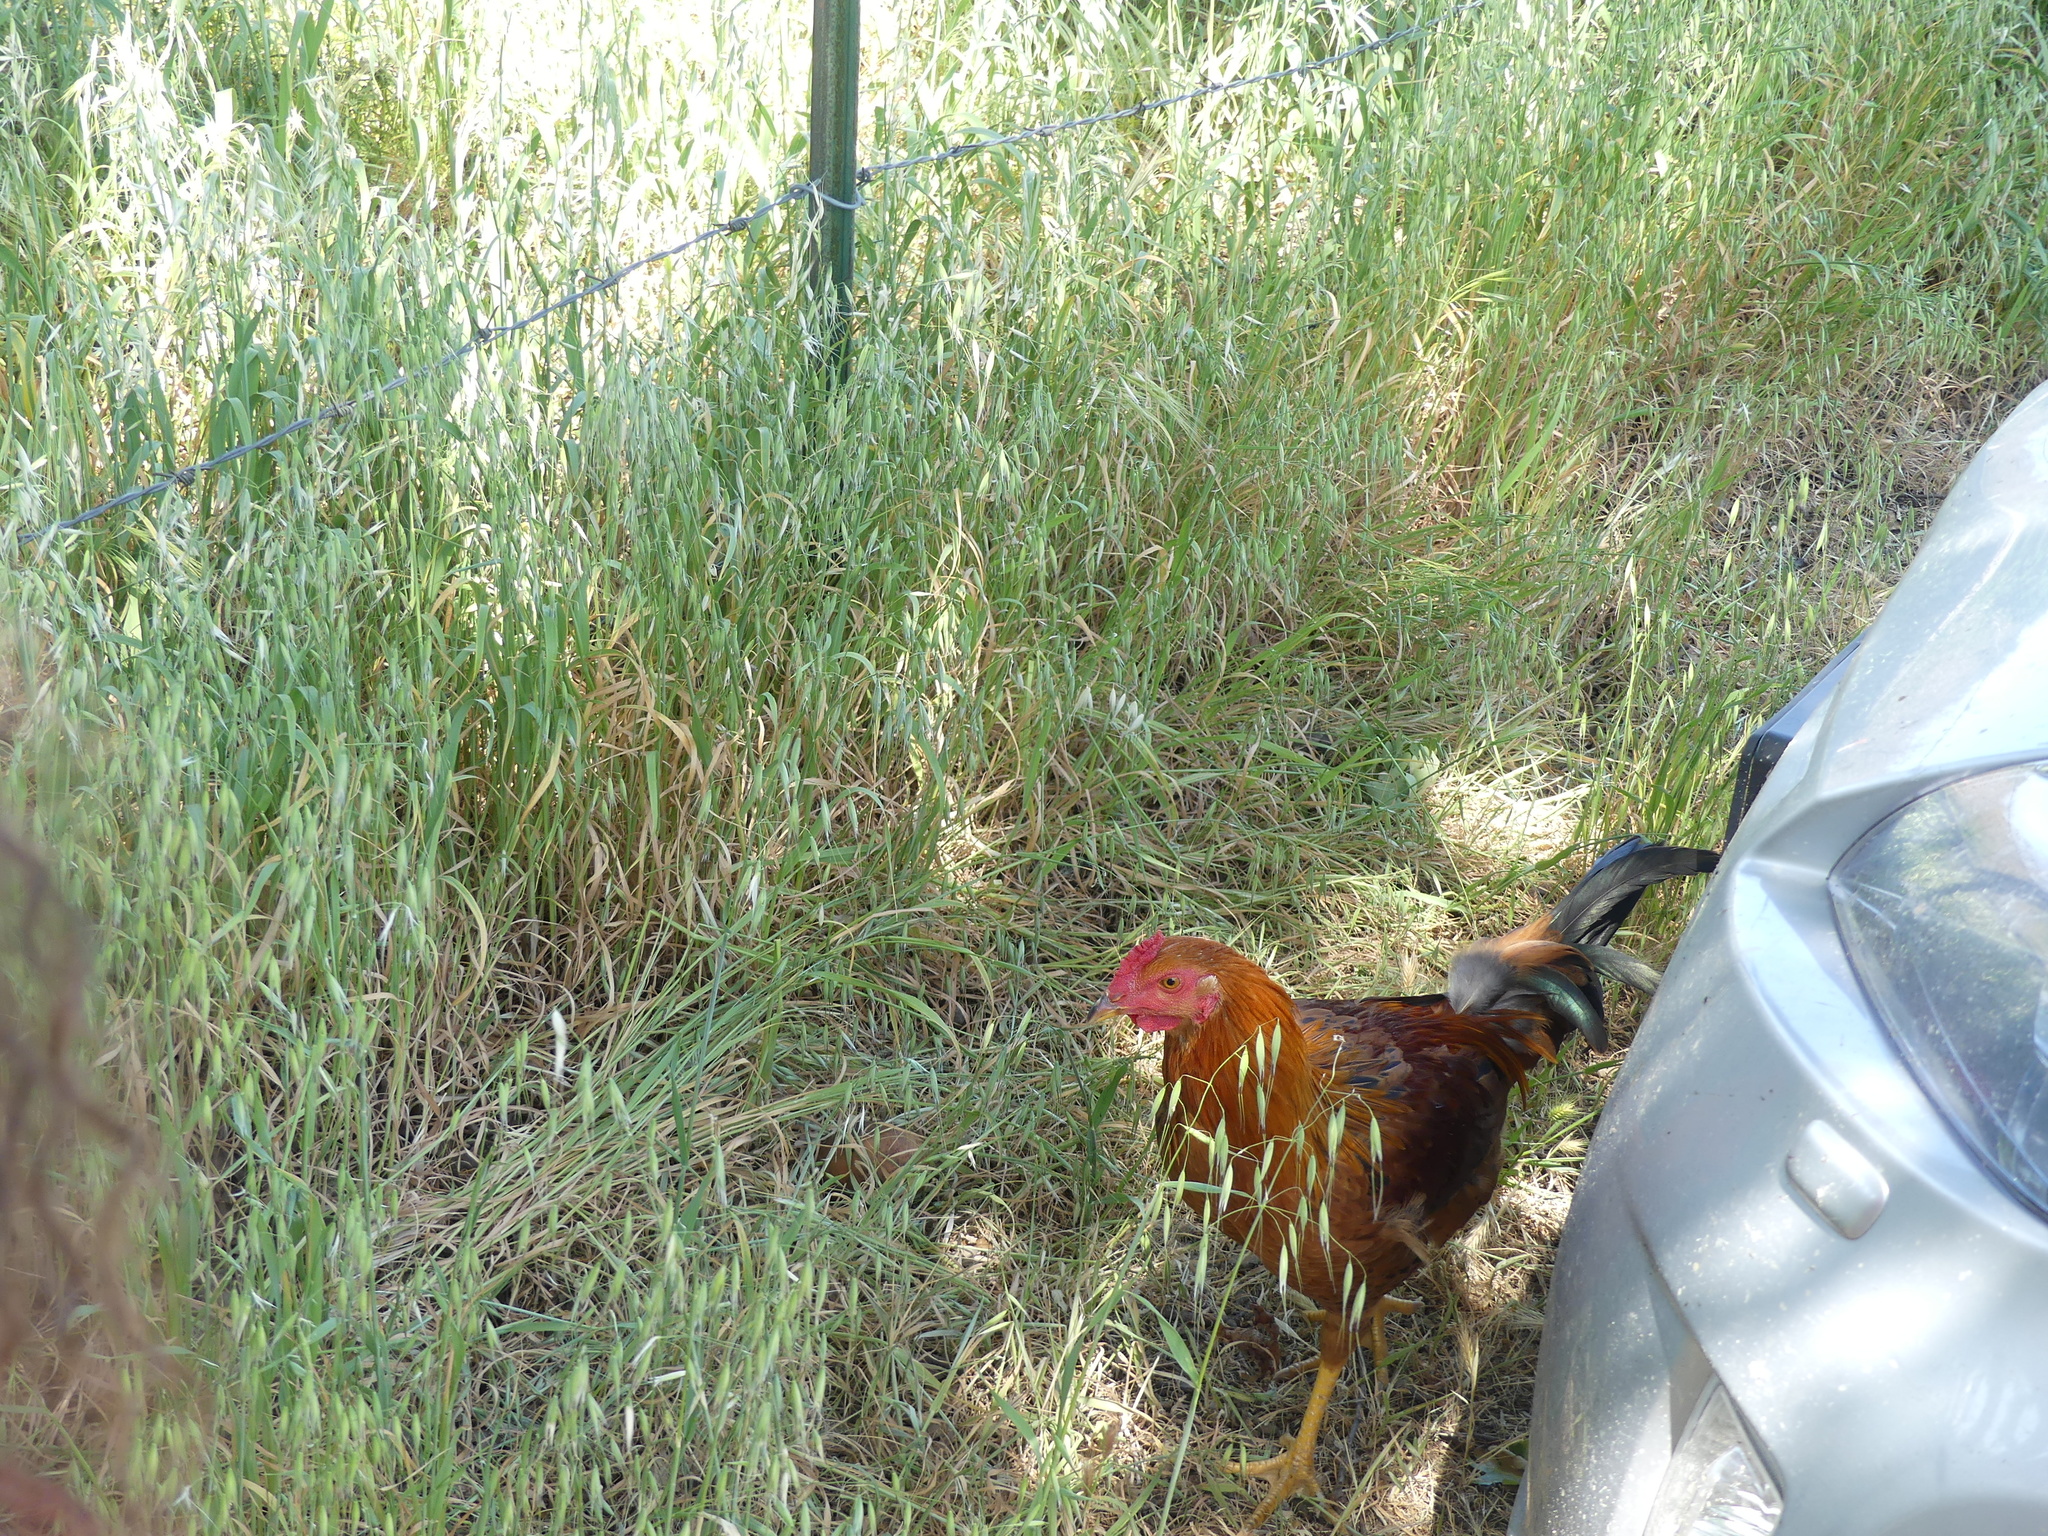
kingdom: Animalia
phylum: Chordata
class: Aves
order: Galliformes
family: Phasianidae
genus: Gallus
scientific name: Gallus gallus
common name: Red junglefowl
